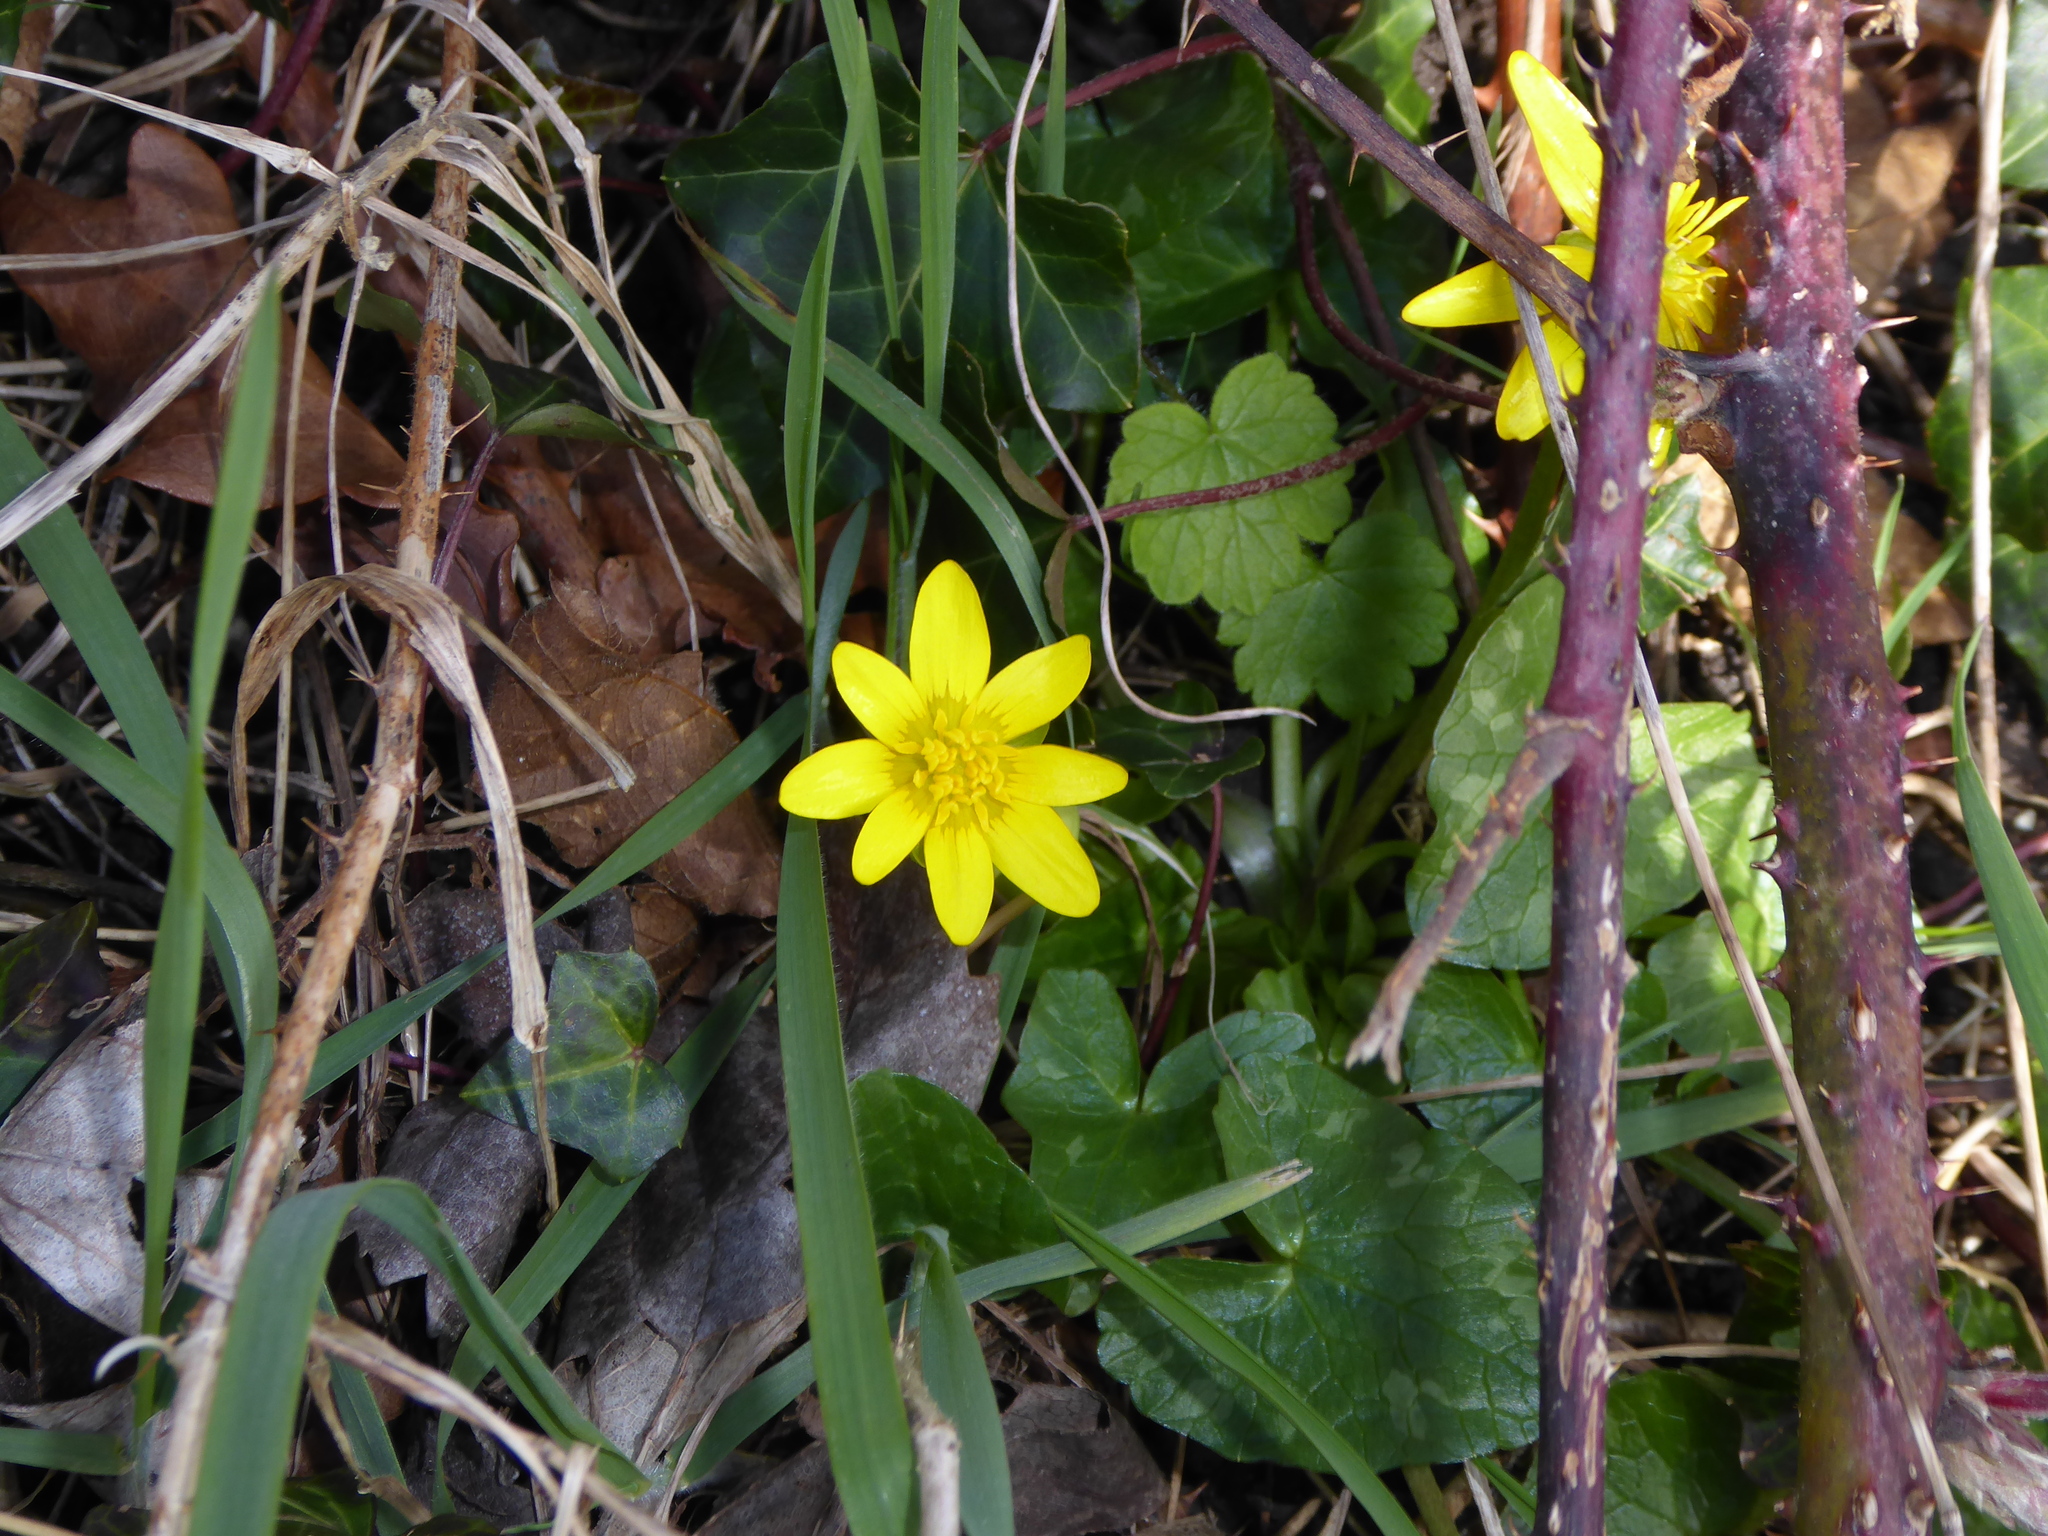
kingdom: Plantae
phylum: Tracheophyta
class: Magnoliopsida
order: Ranunculales
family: Ranunculaceae
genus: Ficaria
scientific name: Ficaria verna
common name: Lesser celandine
